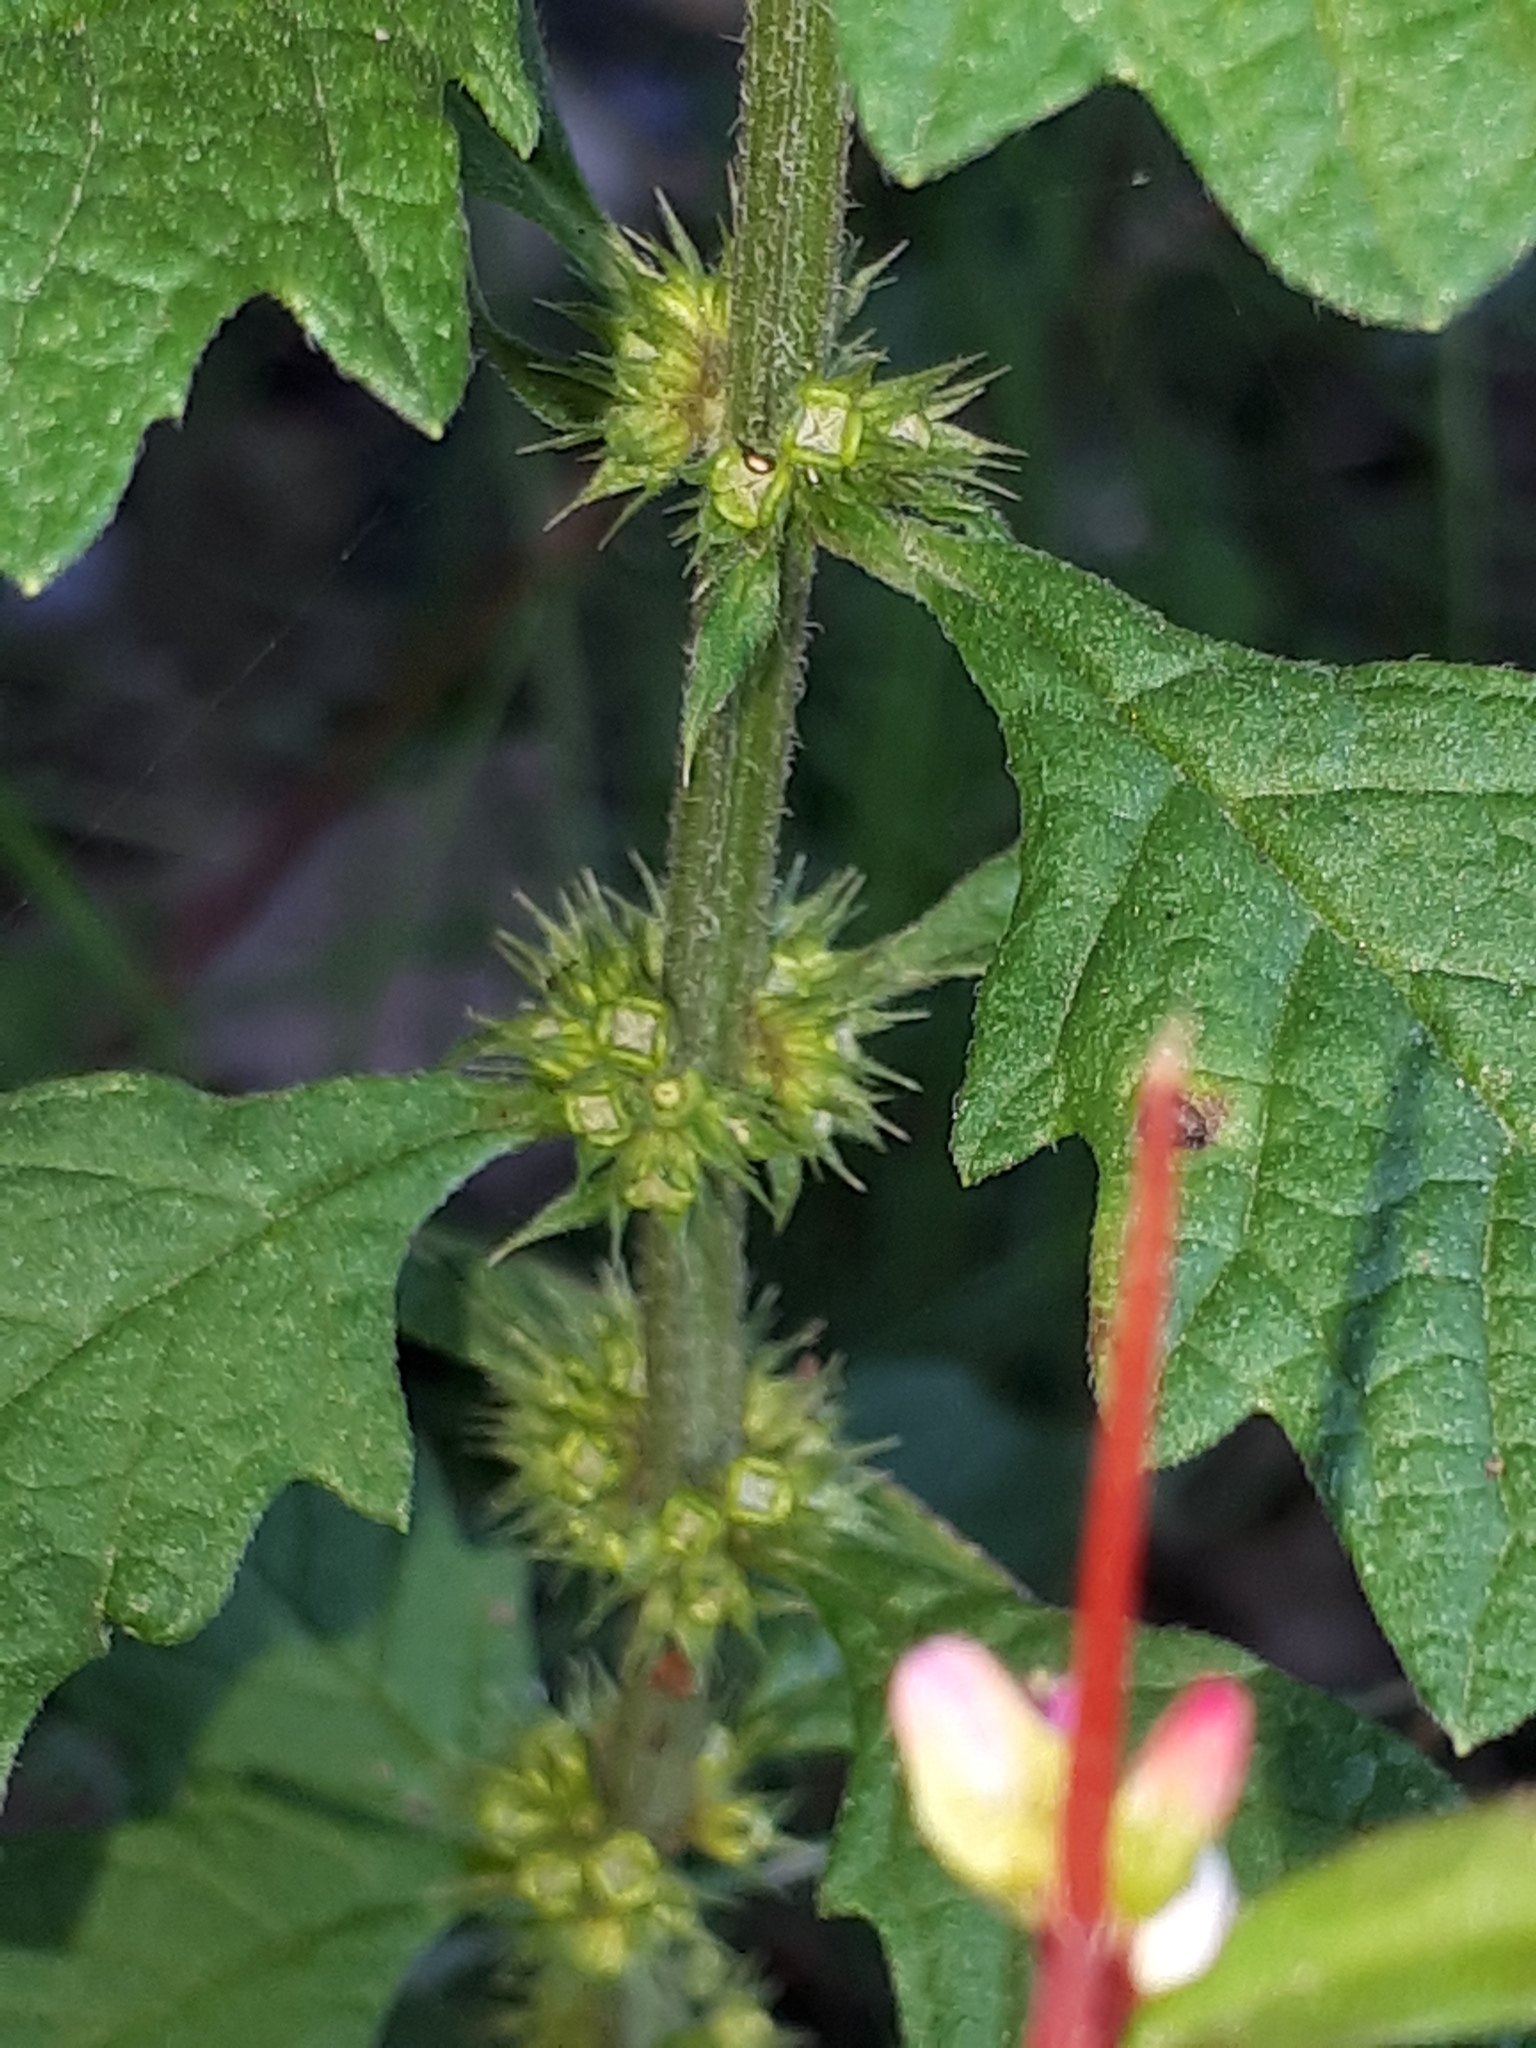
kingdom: Plantae
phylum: Tracheophyta
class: Magnoliopsida
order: Lamiales
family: Lamiaceae
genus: Lycopus
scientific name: Lycopus europaeus
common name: European bugleweed
